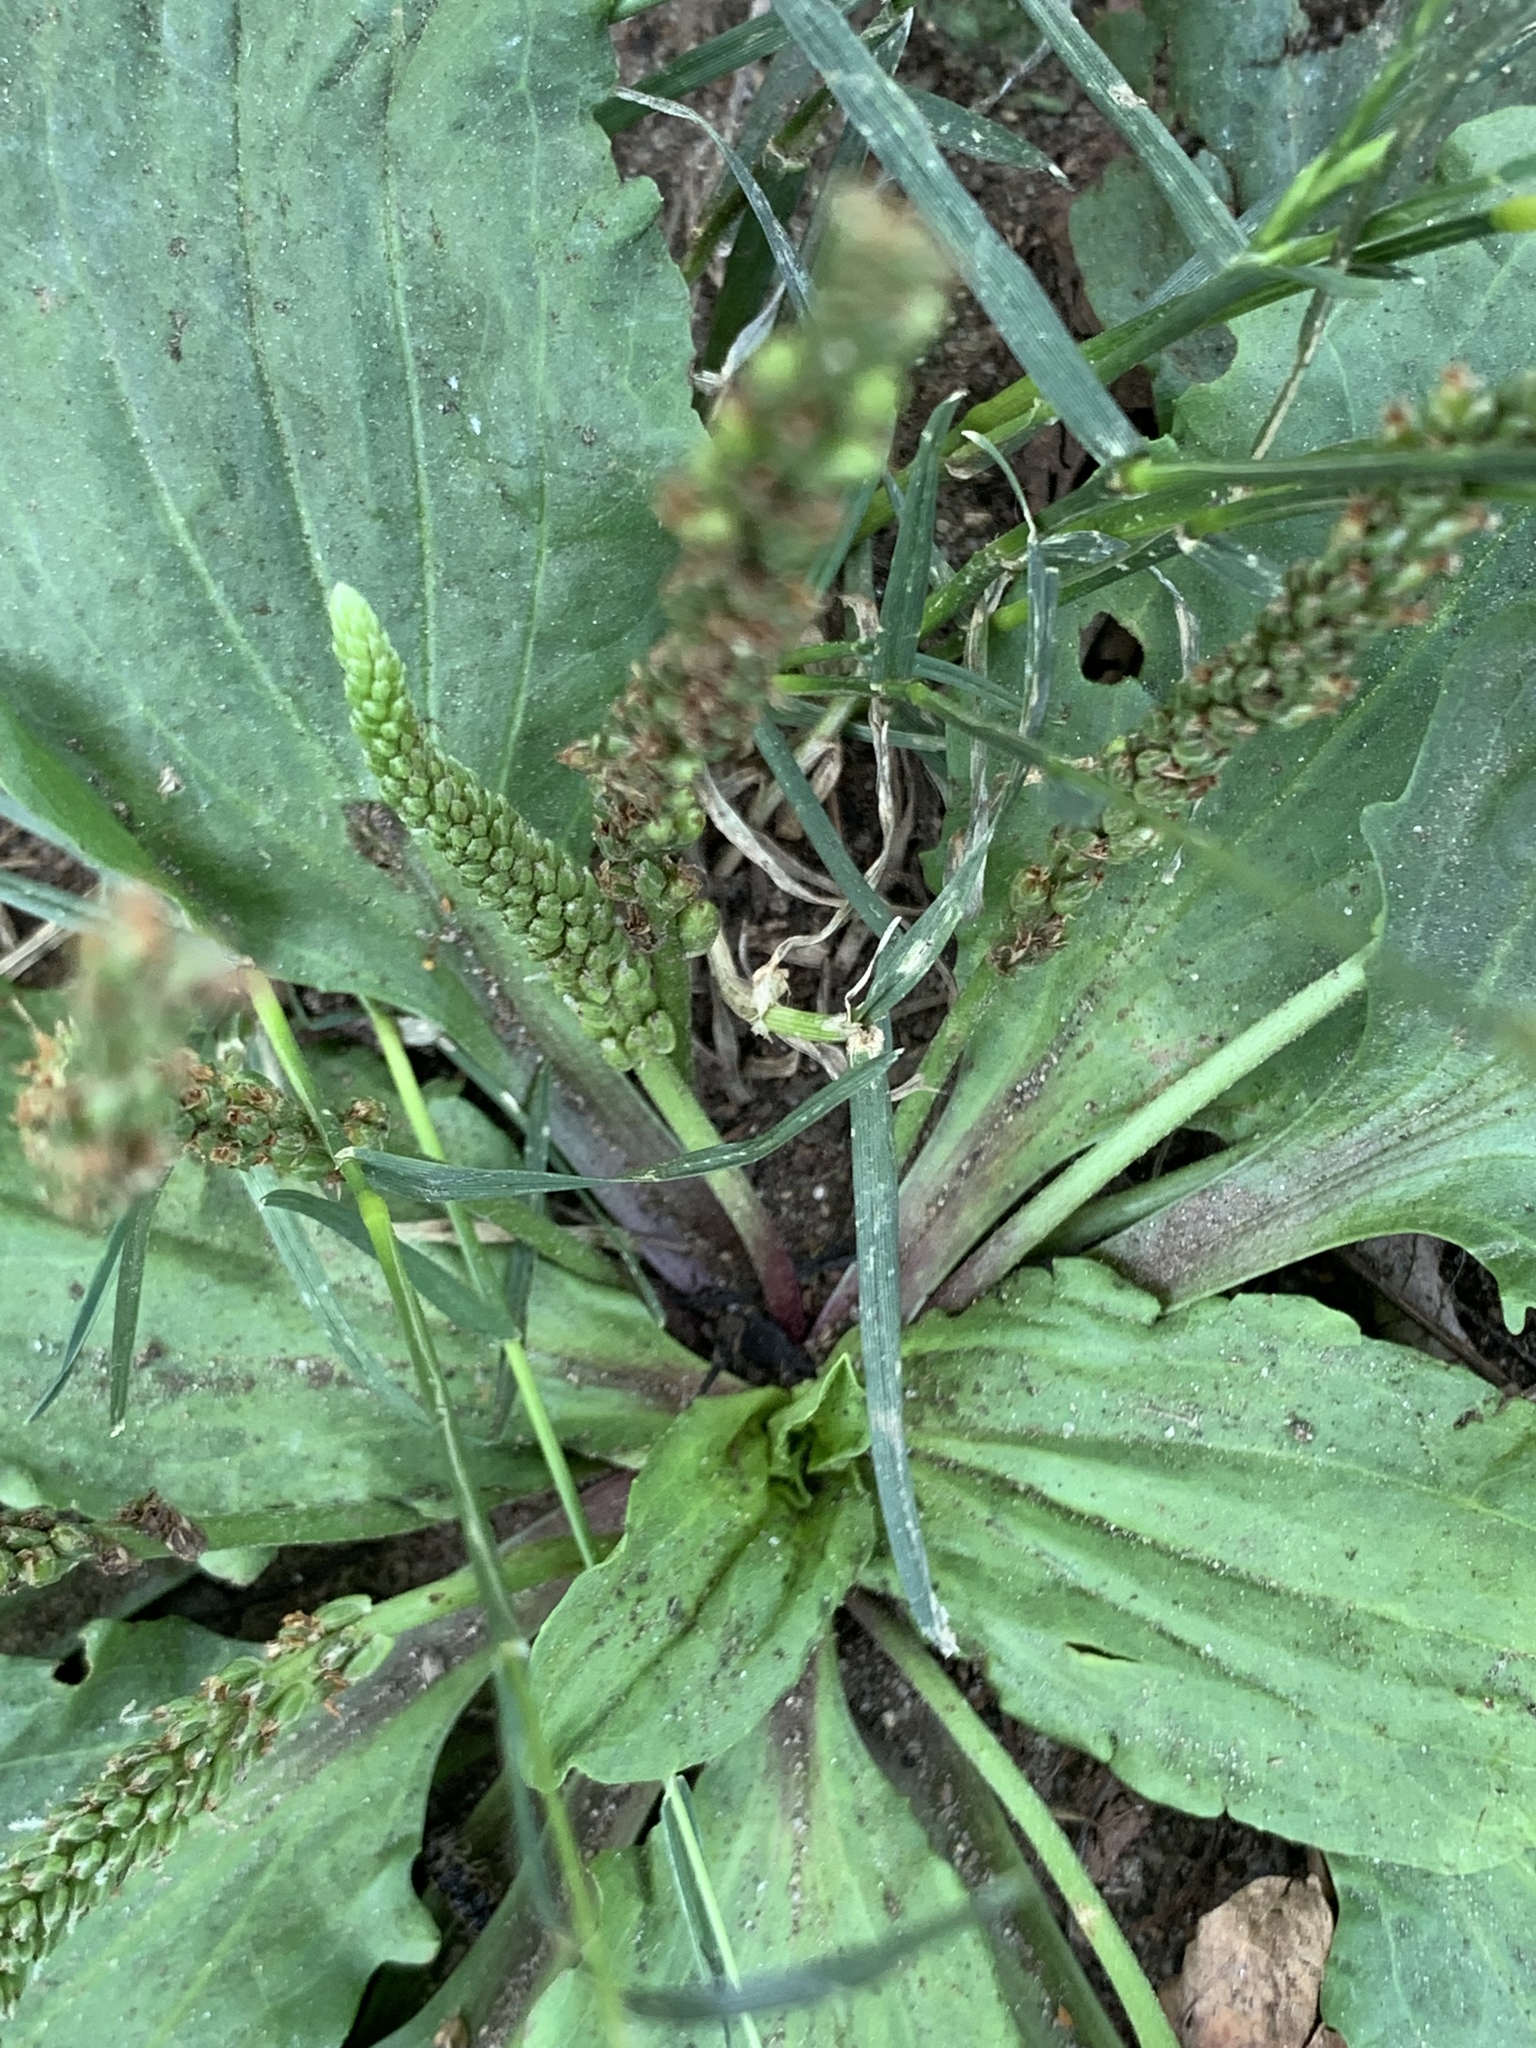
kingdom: Plantae
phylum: Tracheophyta
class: Magnoliopsida
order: Lamiales
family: Plantaginaceae
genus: Plantago
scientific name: Plantago rugelii
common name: American plantain
